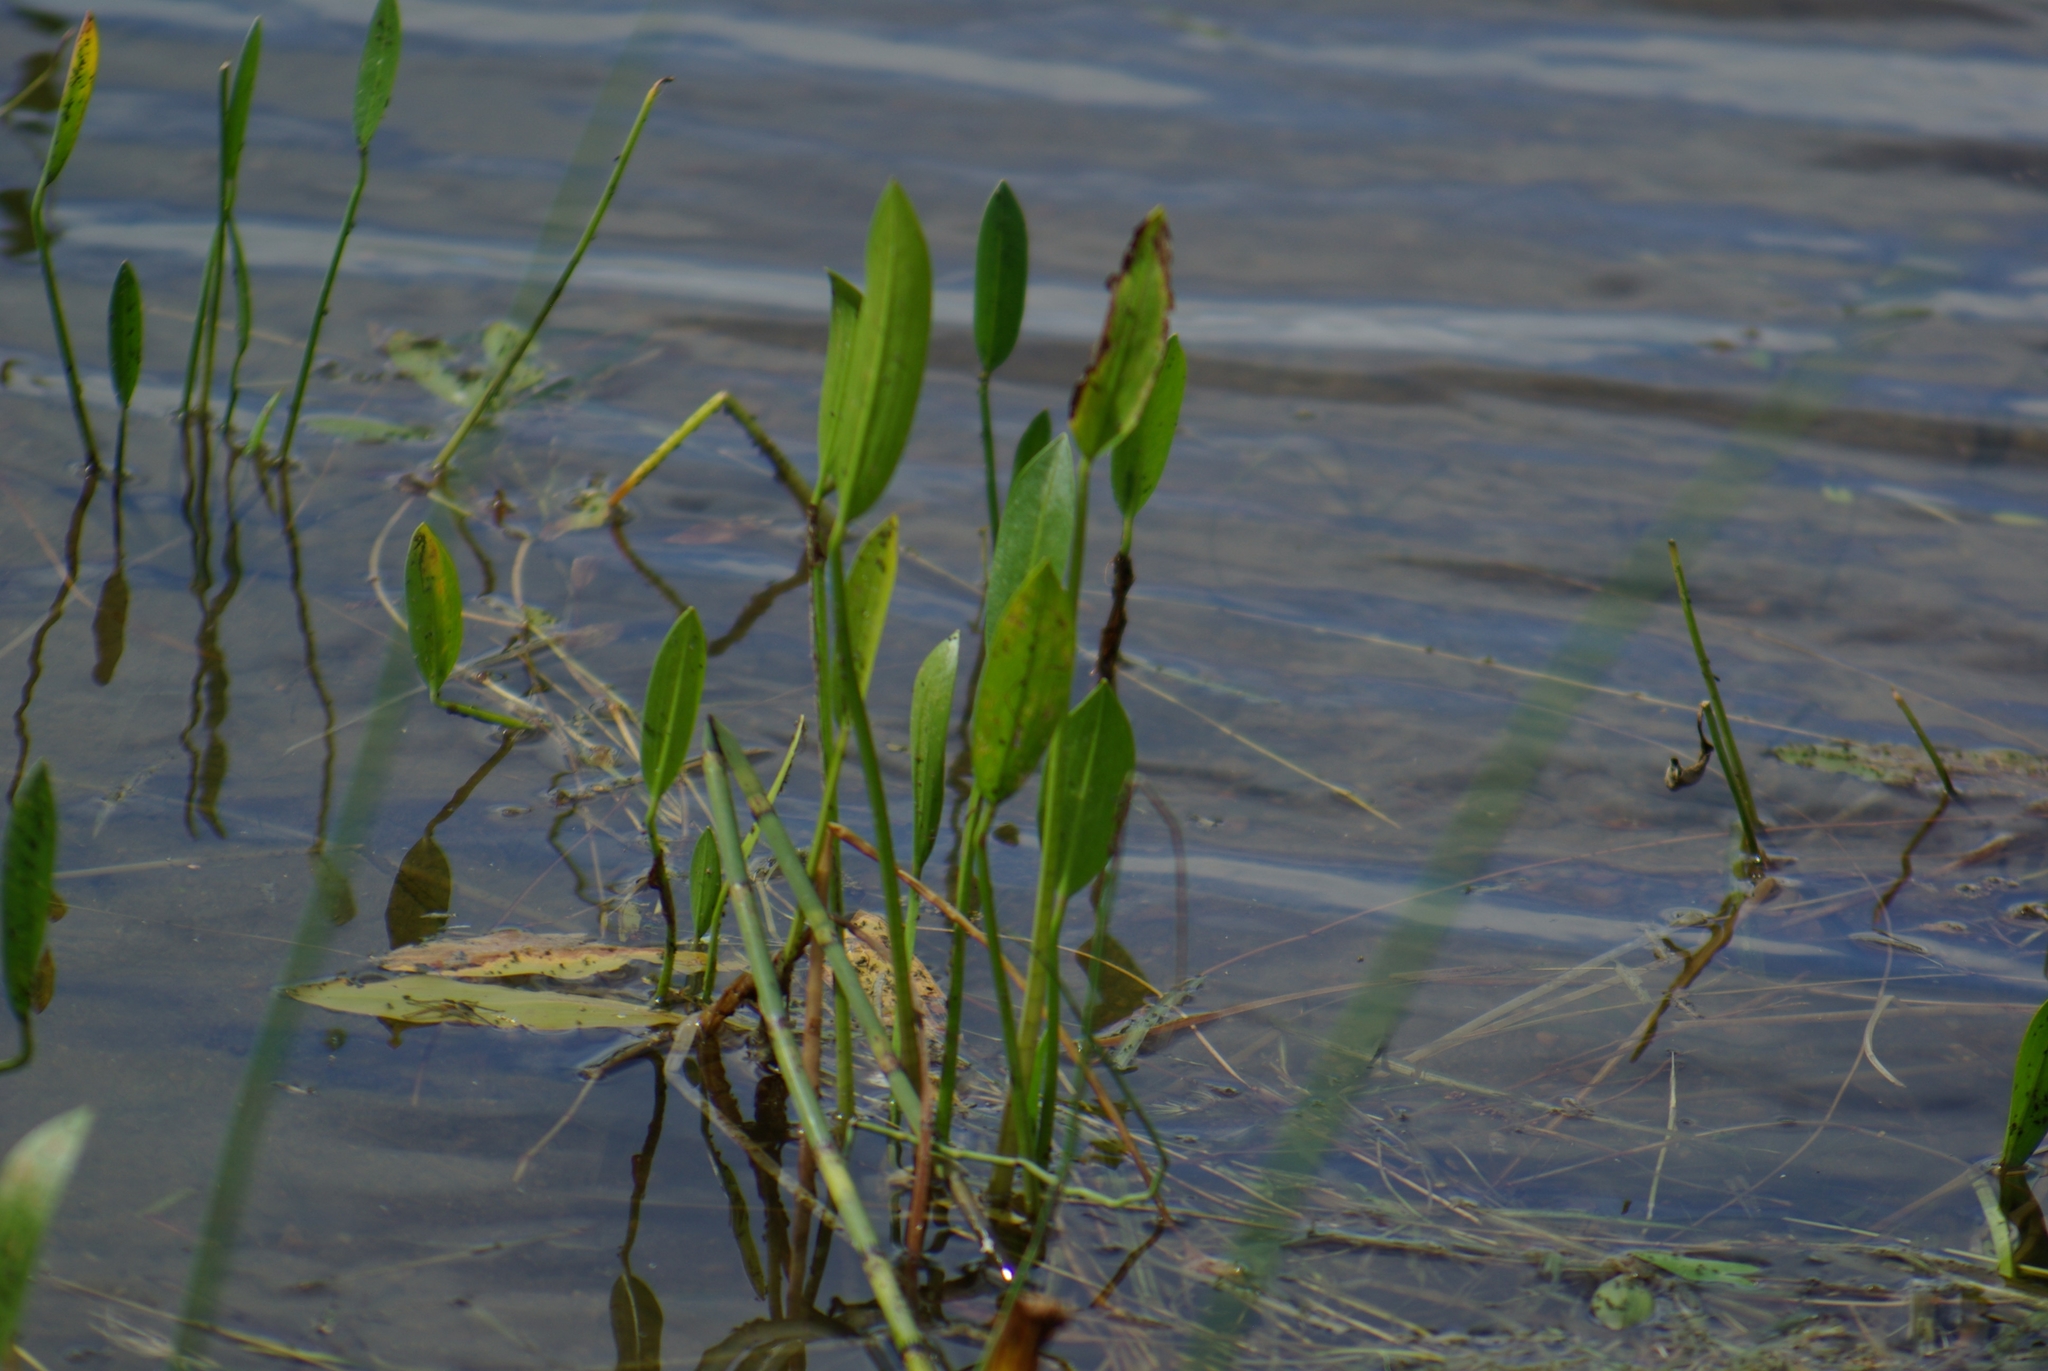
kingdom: Plantae
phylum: Tracheophyta
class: Liliopsida
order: Alismatales
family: Alismataceae
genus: Sagittaria
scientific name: Sagittaria rigida
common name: Canadian arrowhead
